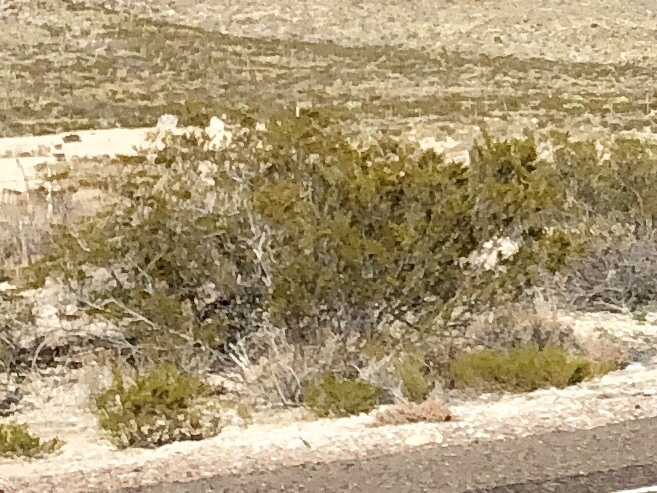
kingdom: Plantae
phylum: Tracheophyta
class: Magnoliopsida
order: Zygophyllales
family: Zygophyllaceae
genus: Larrea
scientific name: Larrea tridentata
